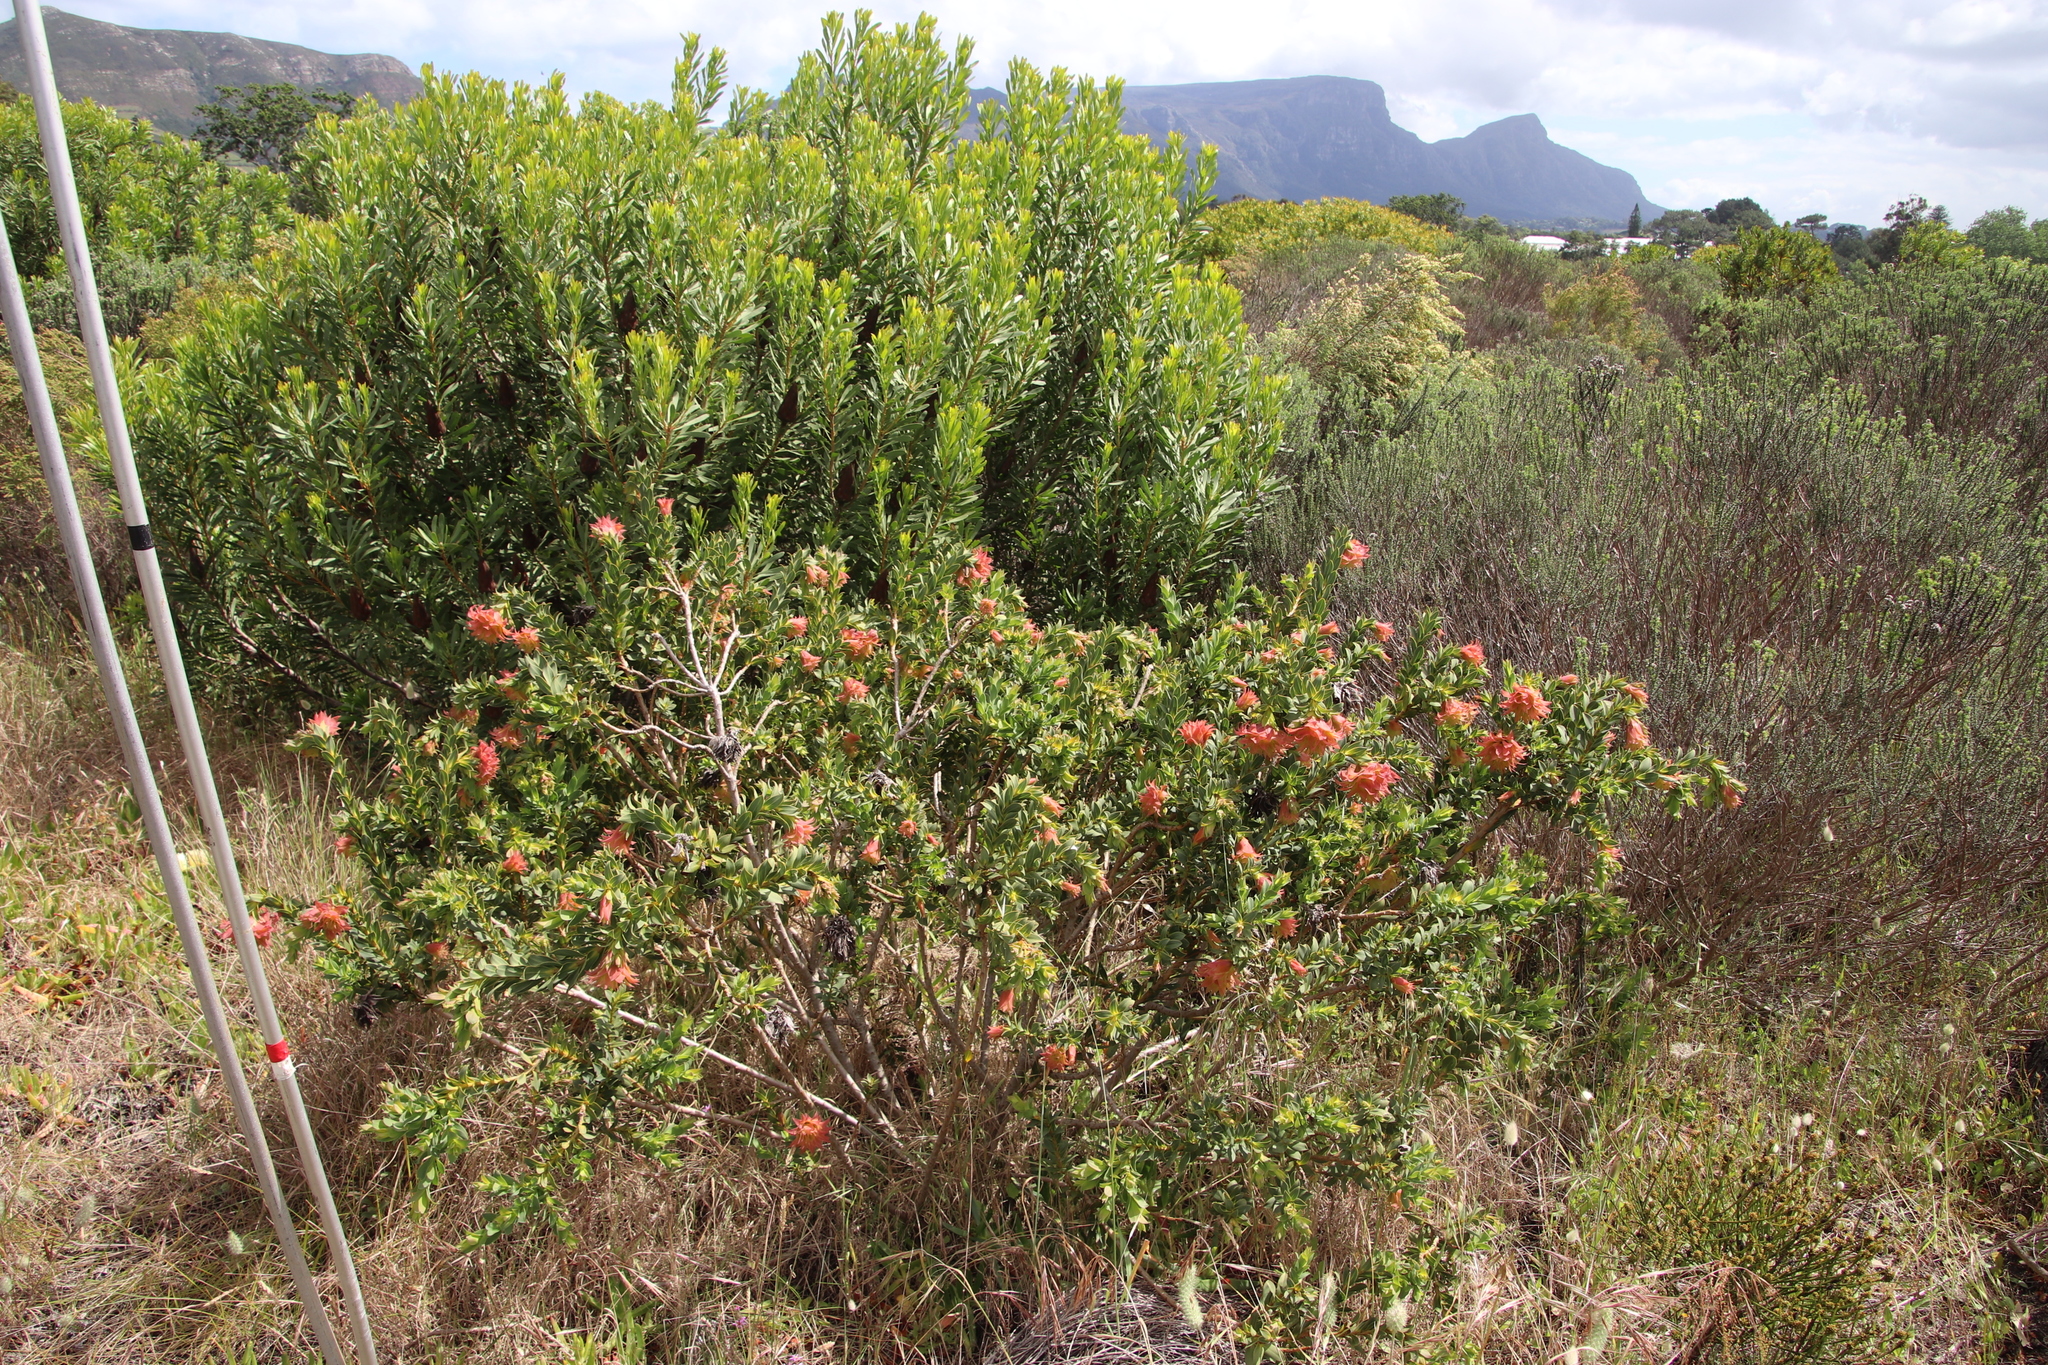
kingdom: Plantae
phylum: Tracheophyta
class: Magnoliopsida
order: Fabales
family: Fabaceae
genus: Liparia
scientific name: Liparia splendens
